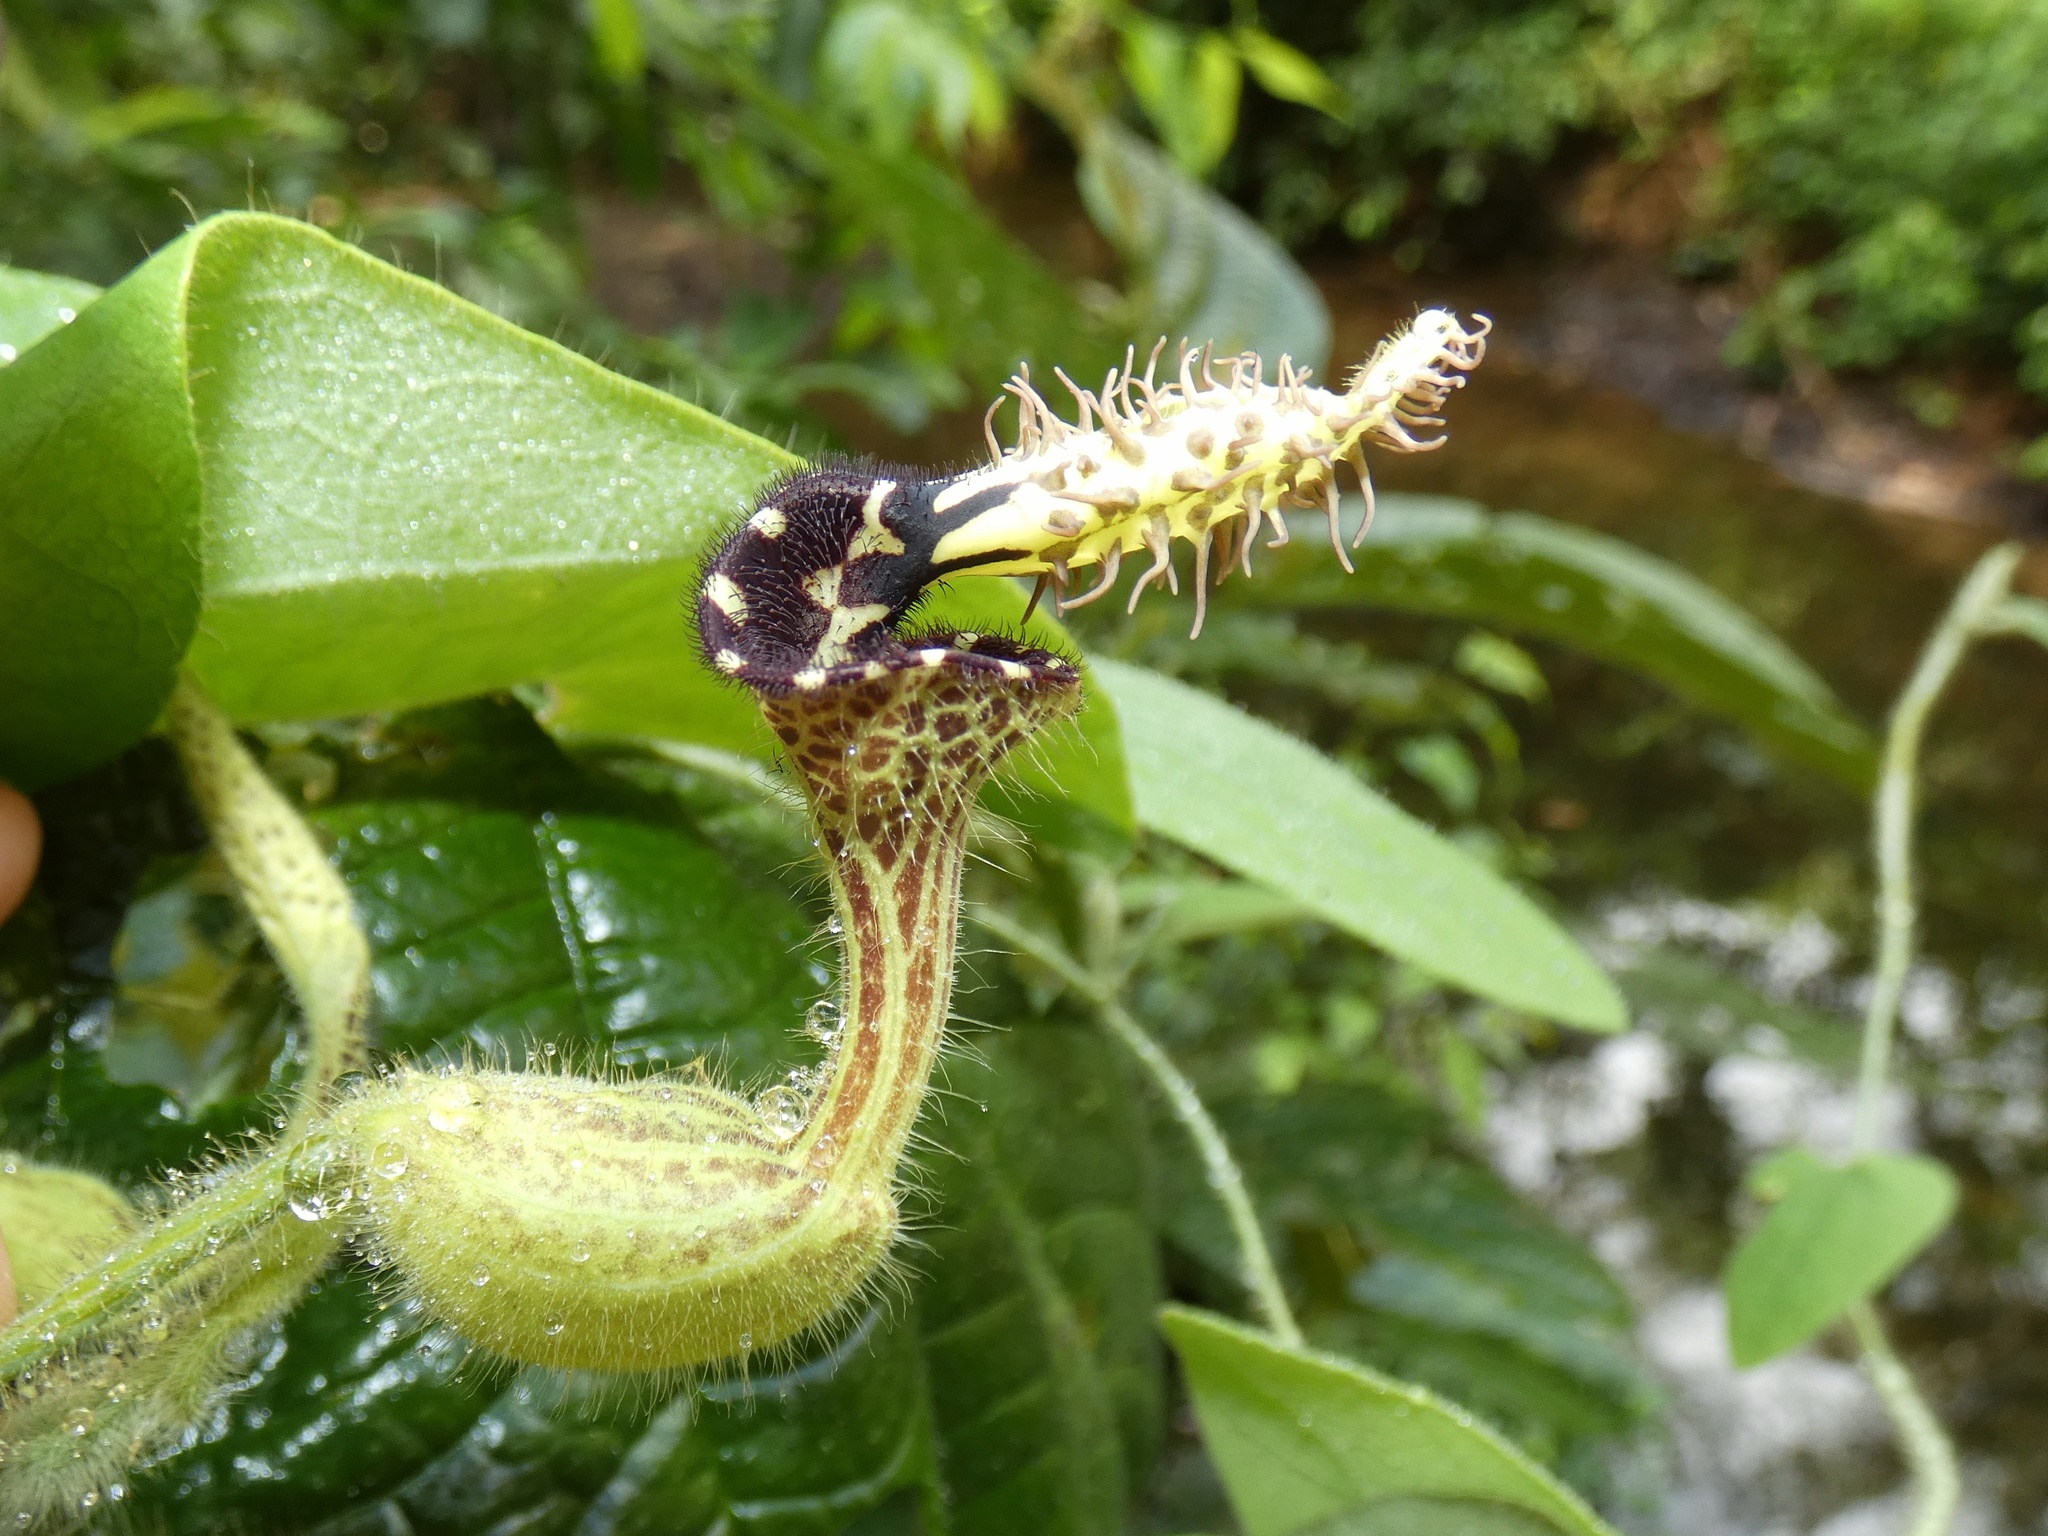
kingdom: Plantae
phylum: Tracheophyta
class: Magnoliopsida
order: Piperales
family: Aristolochiaceae
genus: Aristolochia
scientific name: Aristolochia pilosa
